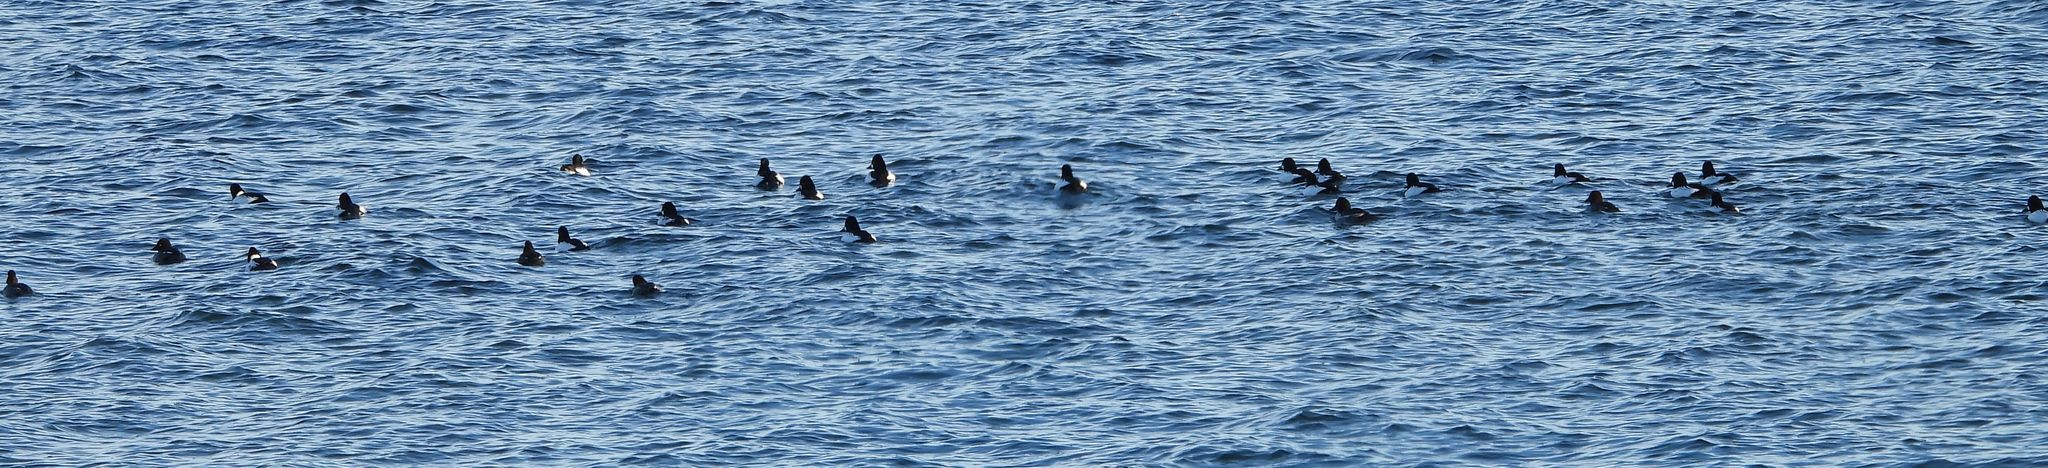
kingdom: Animalia
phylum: Chordata
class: Aves
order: Anseriformes
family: Anatidae
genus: Bucephala
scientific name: Bucephala clangula
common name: Common goldeneye
